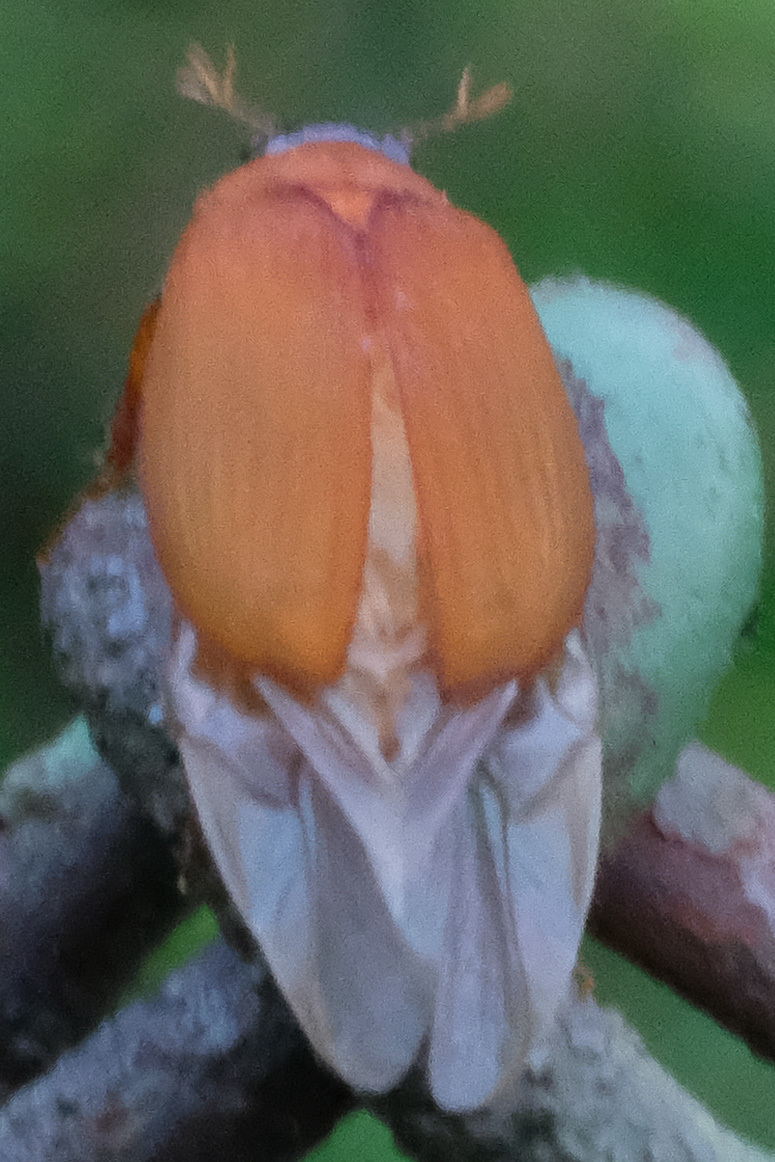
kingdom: Animalia
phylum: Arthropoda
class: Insecta
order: Coleoptera
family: Scarabaeidae
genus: Maladera
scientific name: Maladera formosae
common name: Asiatic garden beetle
